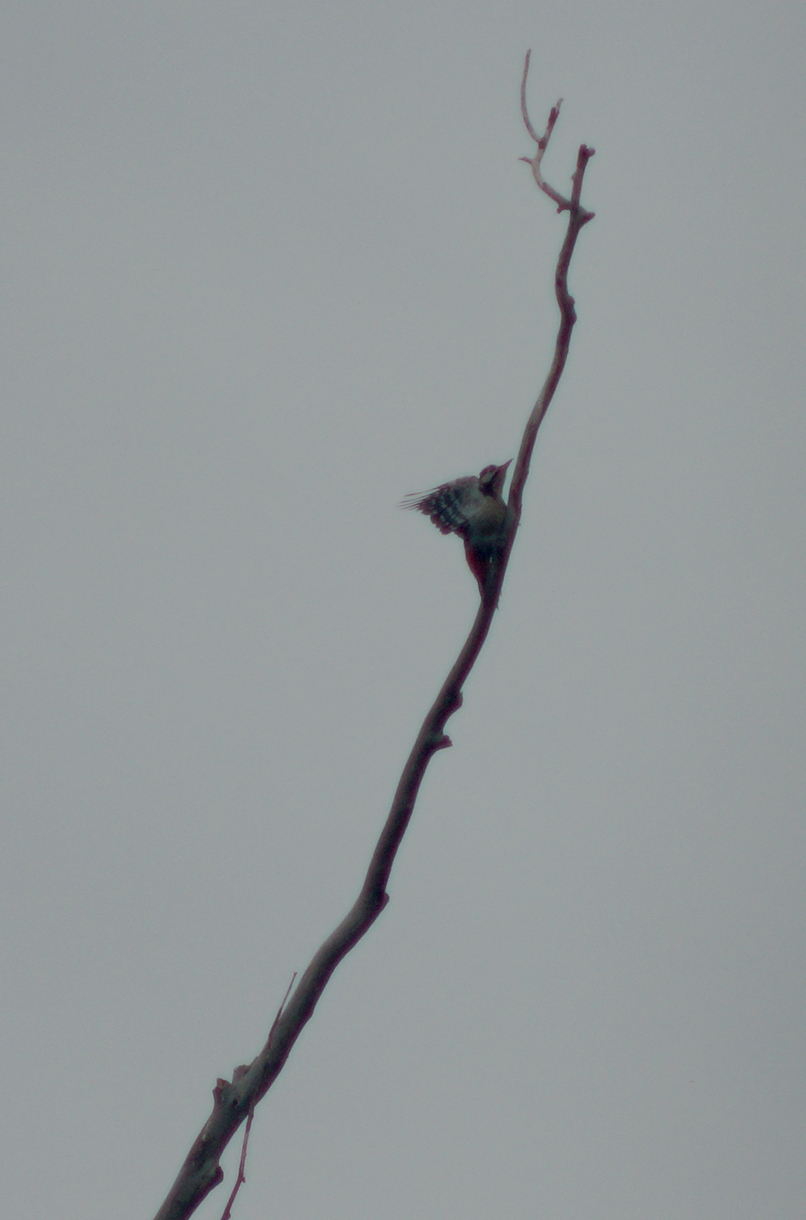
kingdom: Animalia
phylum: Chordata
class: Aves
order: Piciformes
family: Picidae
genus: Dendrocopos
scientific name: Dendrocopos major
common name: Great spotted woodpecker
